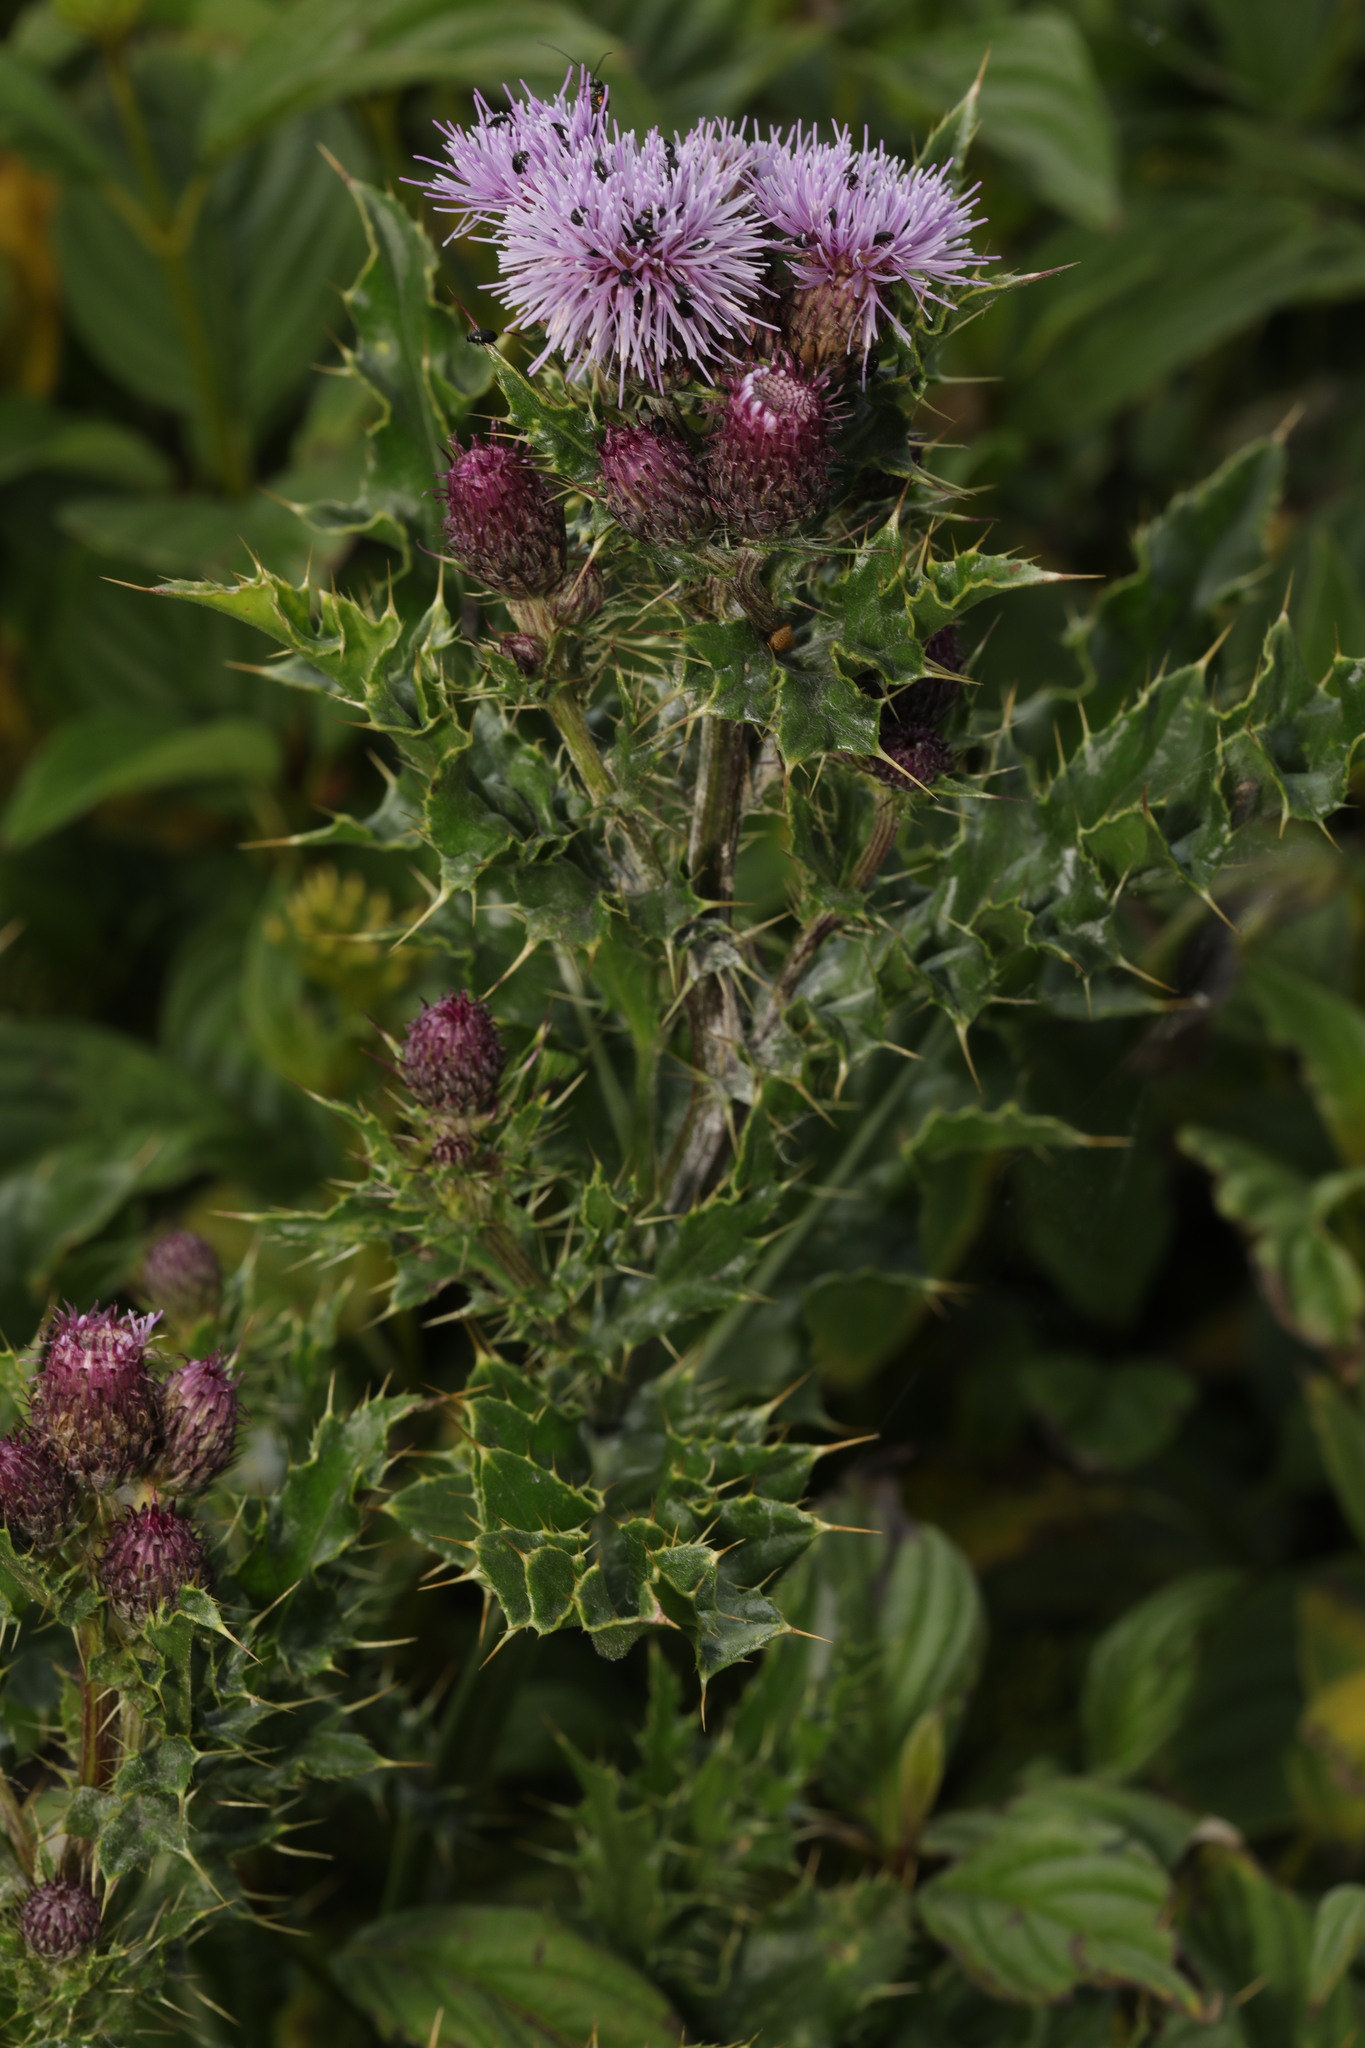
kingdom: Plantae
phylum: Tracheophyta
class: Magnoliopsida
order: Asterales
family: Asteraceae
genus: Cirsium
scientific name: Cirsium arvense
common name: Creeping thistle
